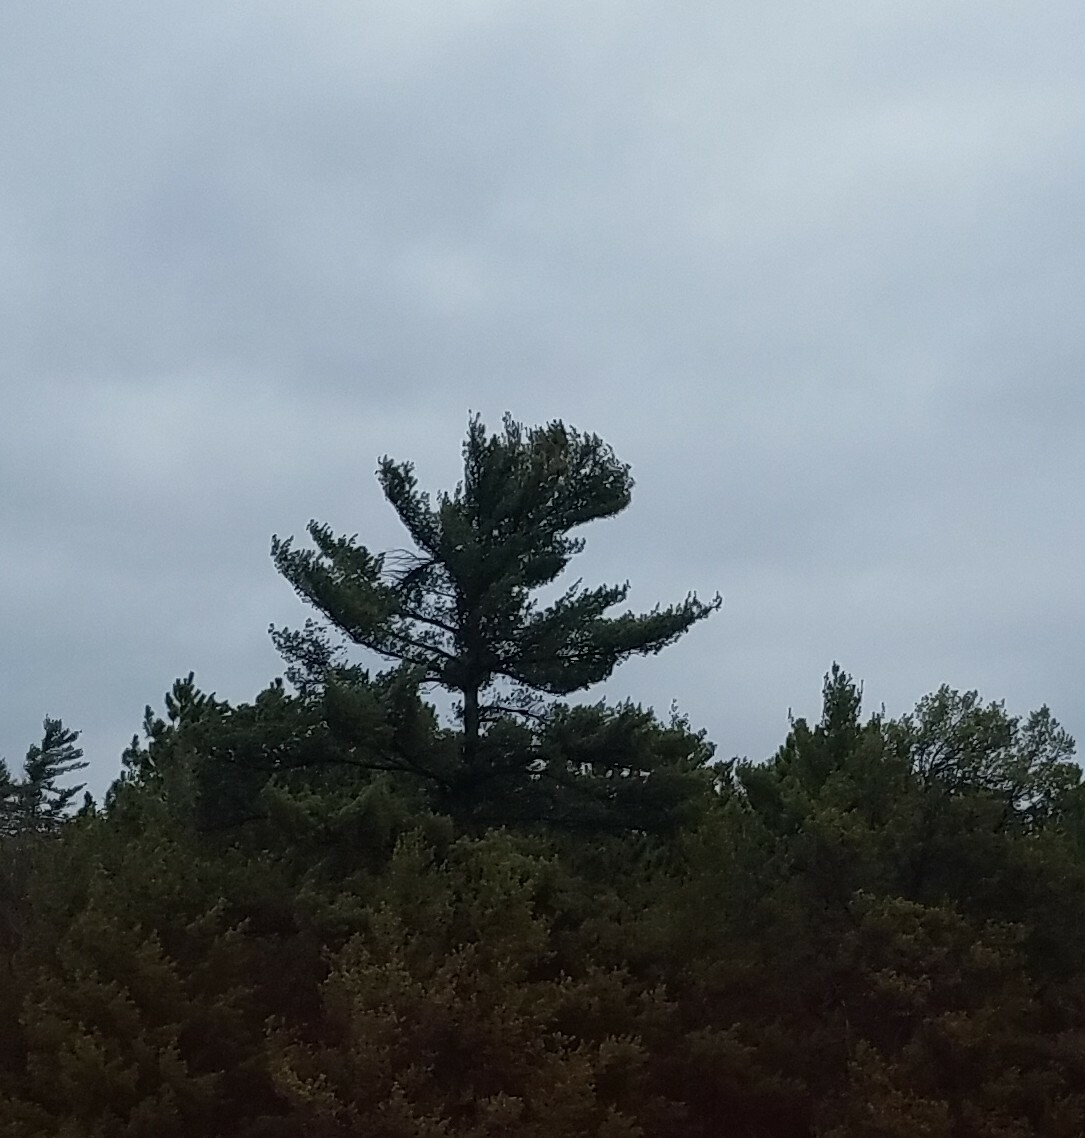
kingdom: Plantae
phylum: Tracheophyta
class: Pinopsida
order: Pinales
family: Pinaceae
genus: Pinus
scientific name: Pinus strobus
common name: Weymouth pine
